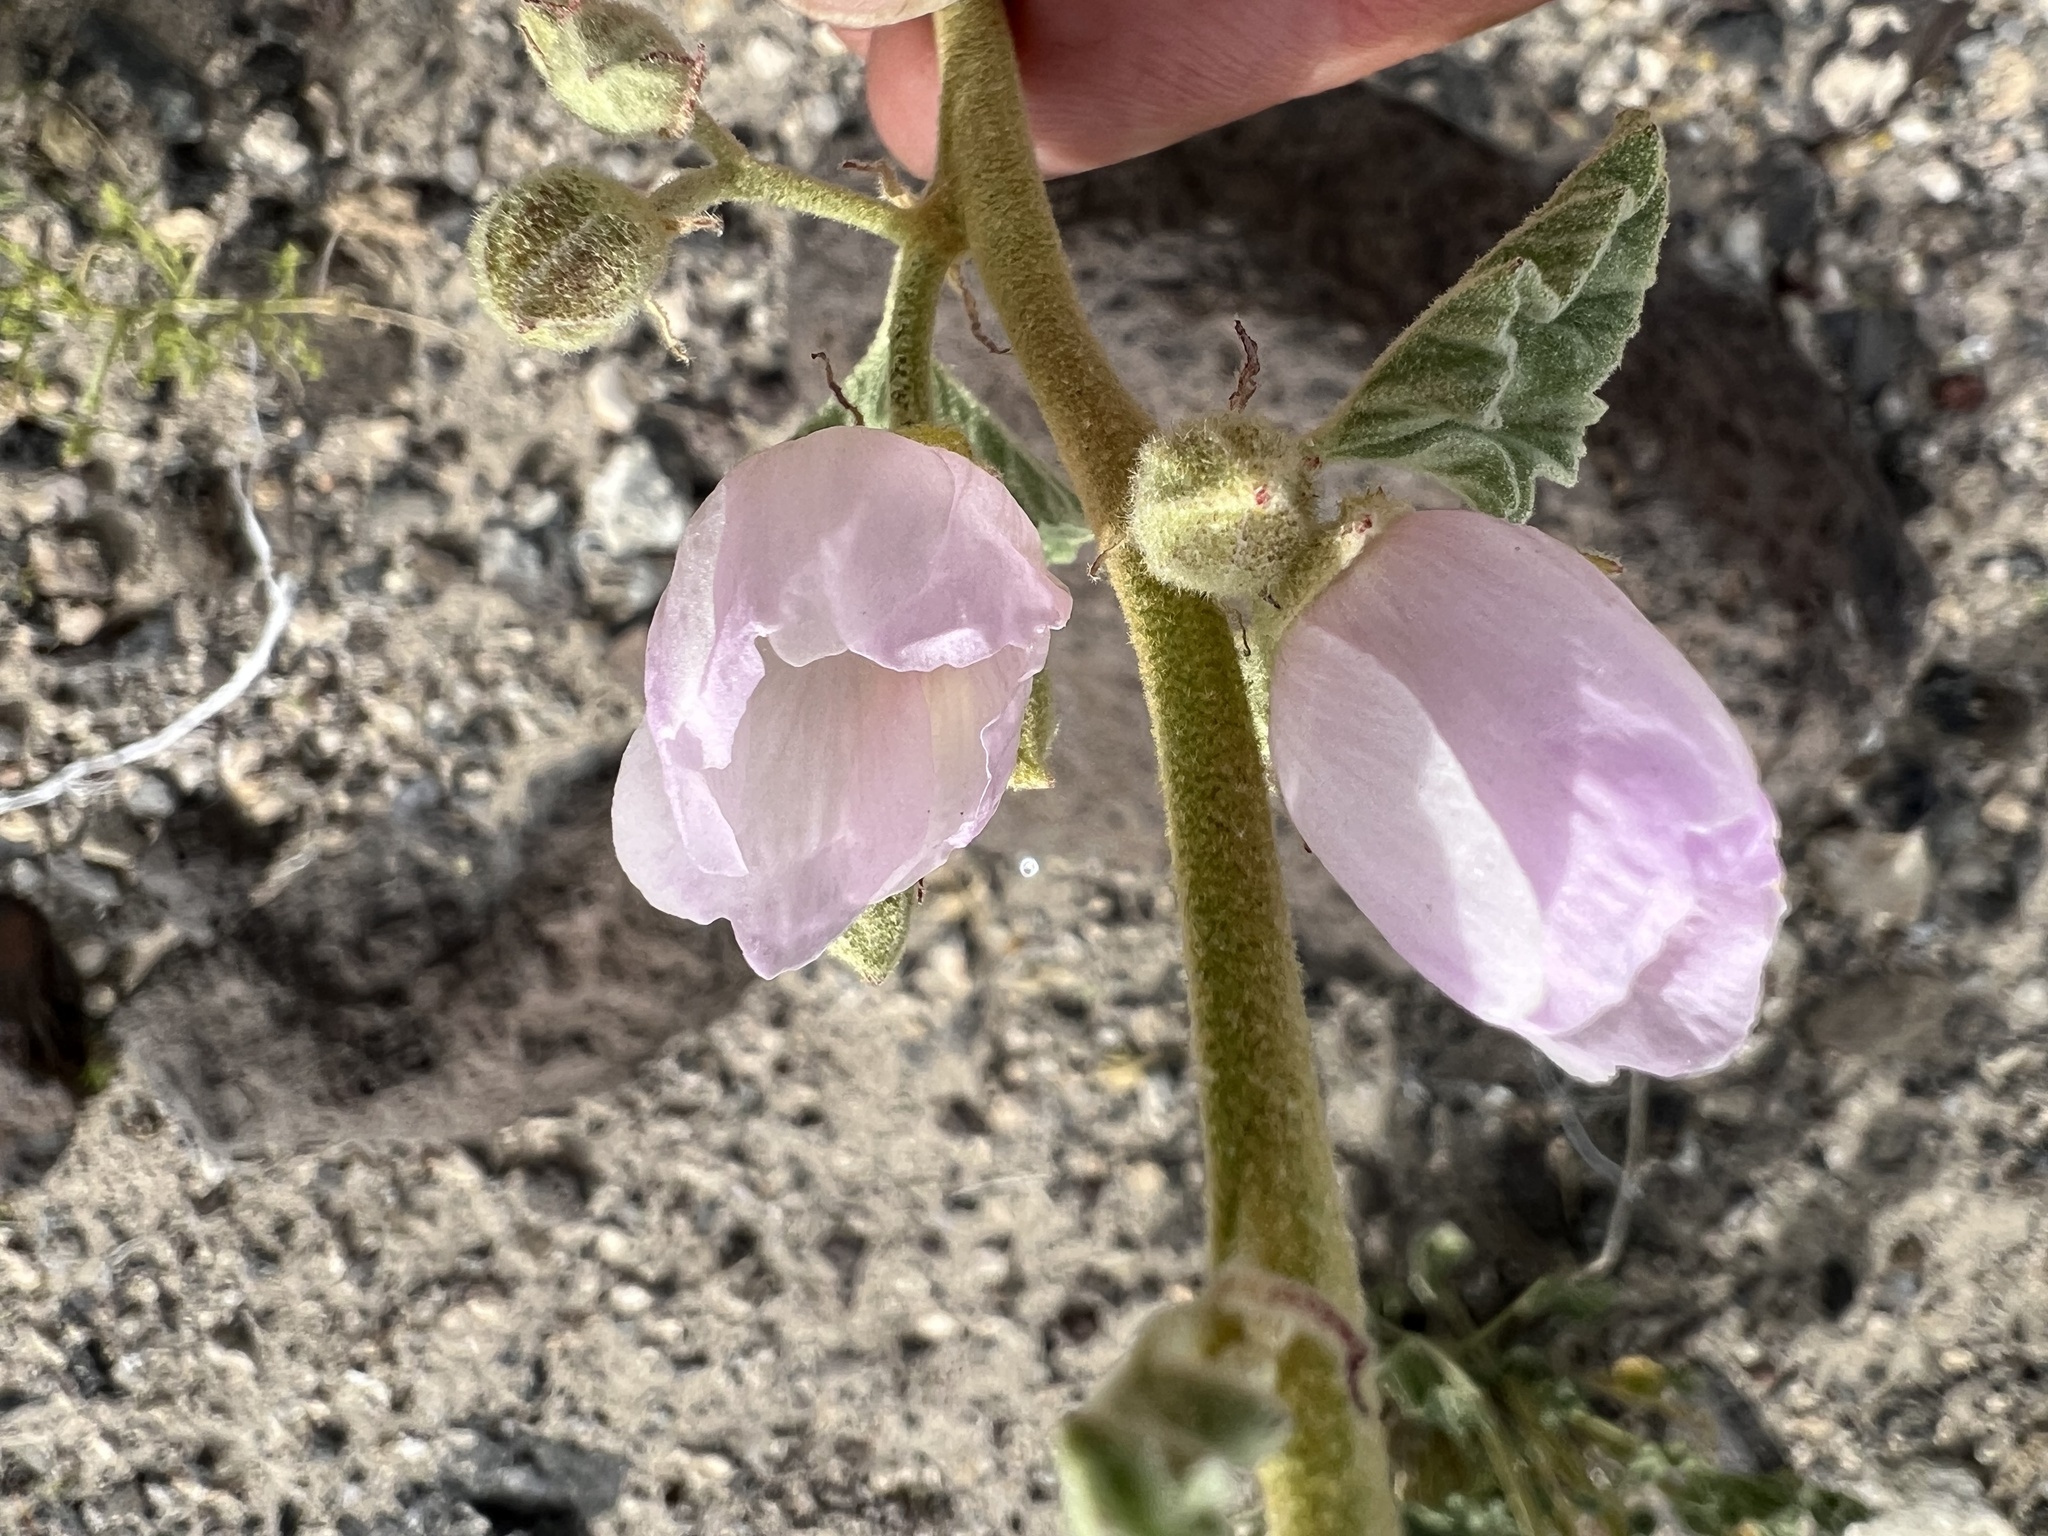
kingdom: Plantae
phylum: Tracheophyta
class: Magnoliopsida
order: Malvales
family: Malvaceae
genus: Sphaeralcea
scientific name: Sphaeralcea ambigua
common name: Apricot globe-mallow
